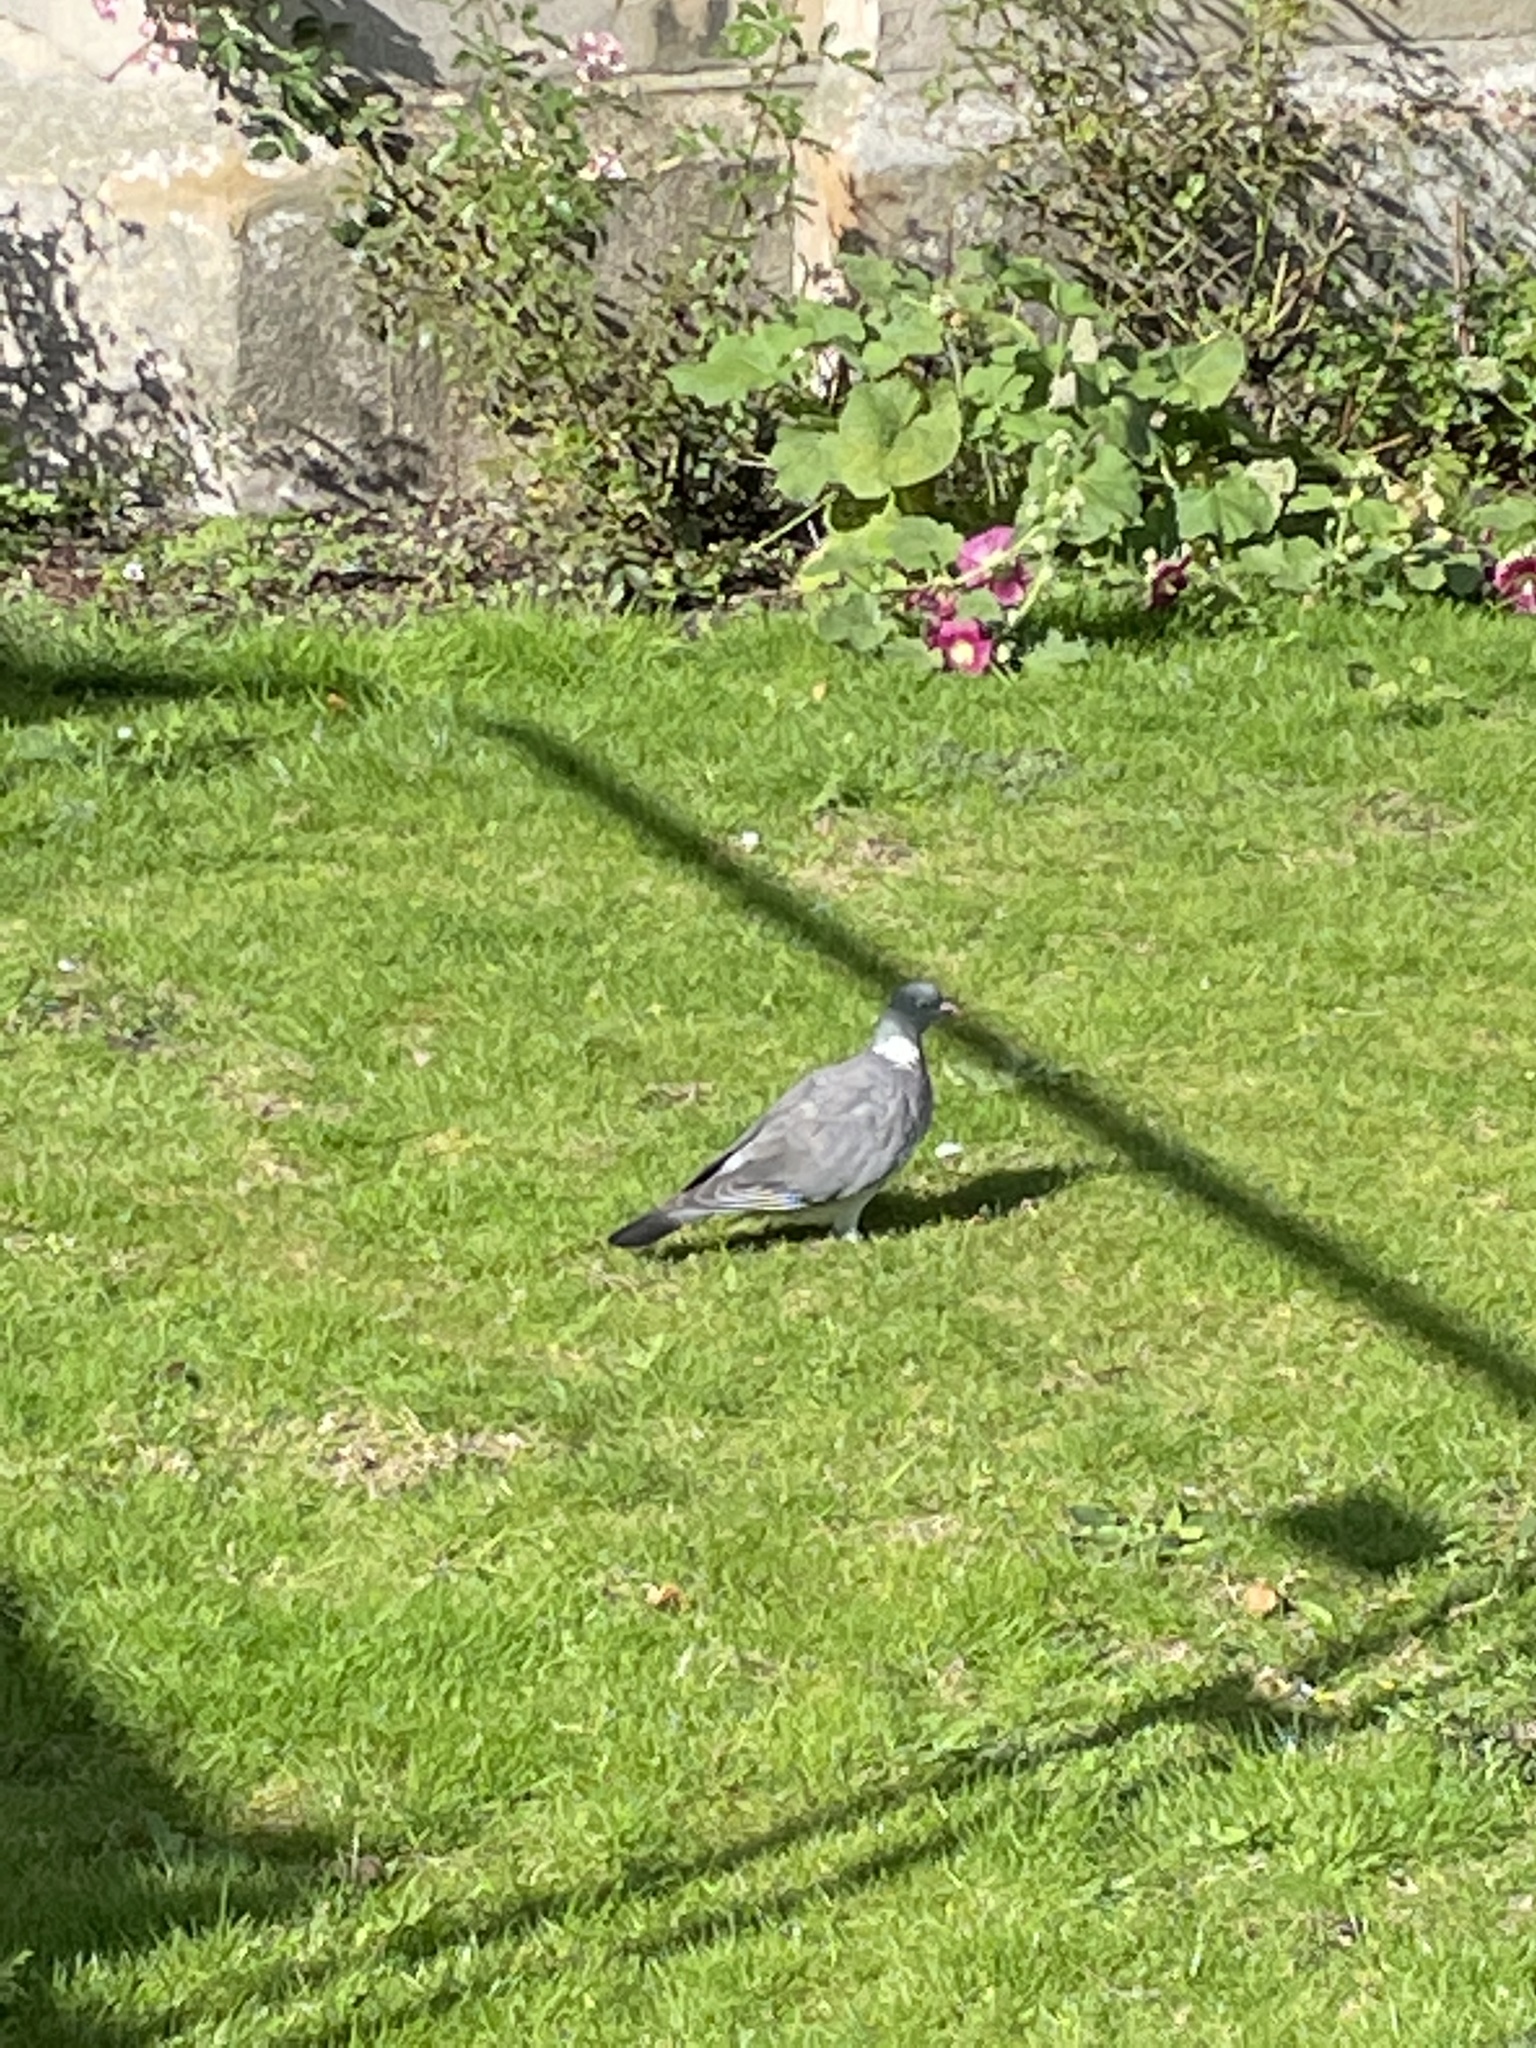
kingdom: Animalia
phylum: Chordata
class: Aves
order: Columbiformes
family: Columbidae
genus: Columba
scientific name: Columba palumbus
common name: Common wood pigeon
